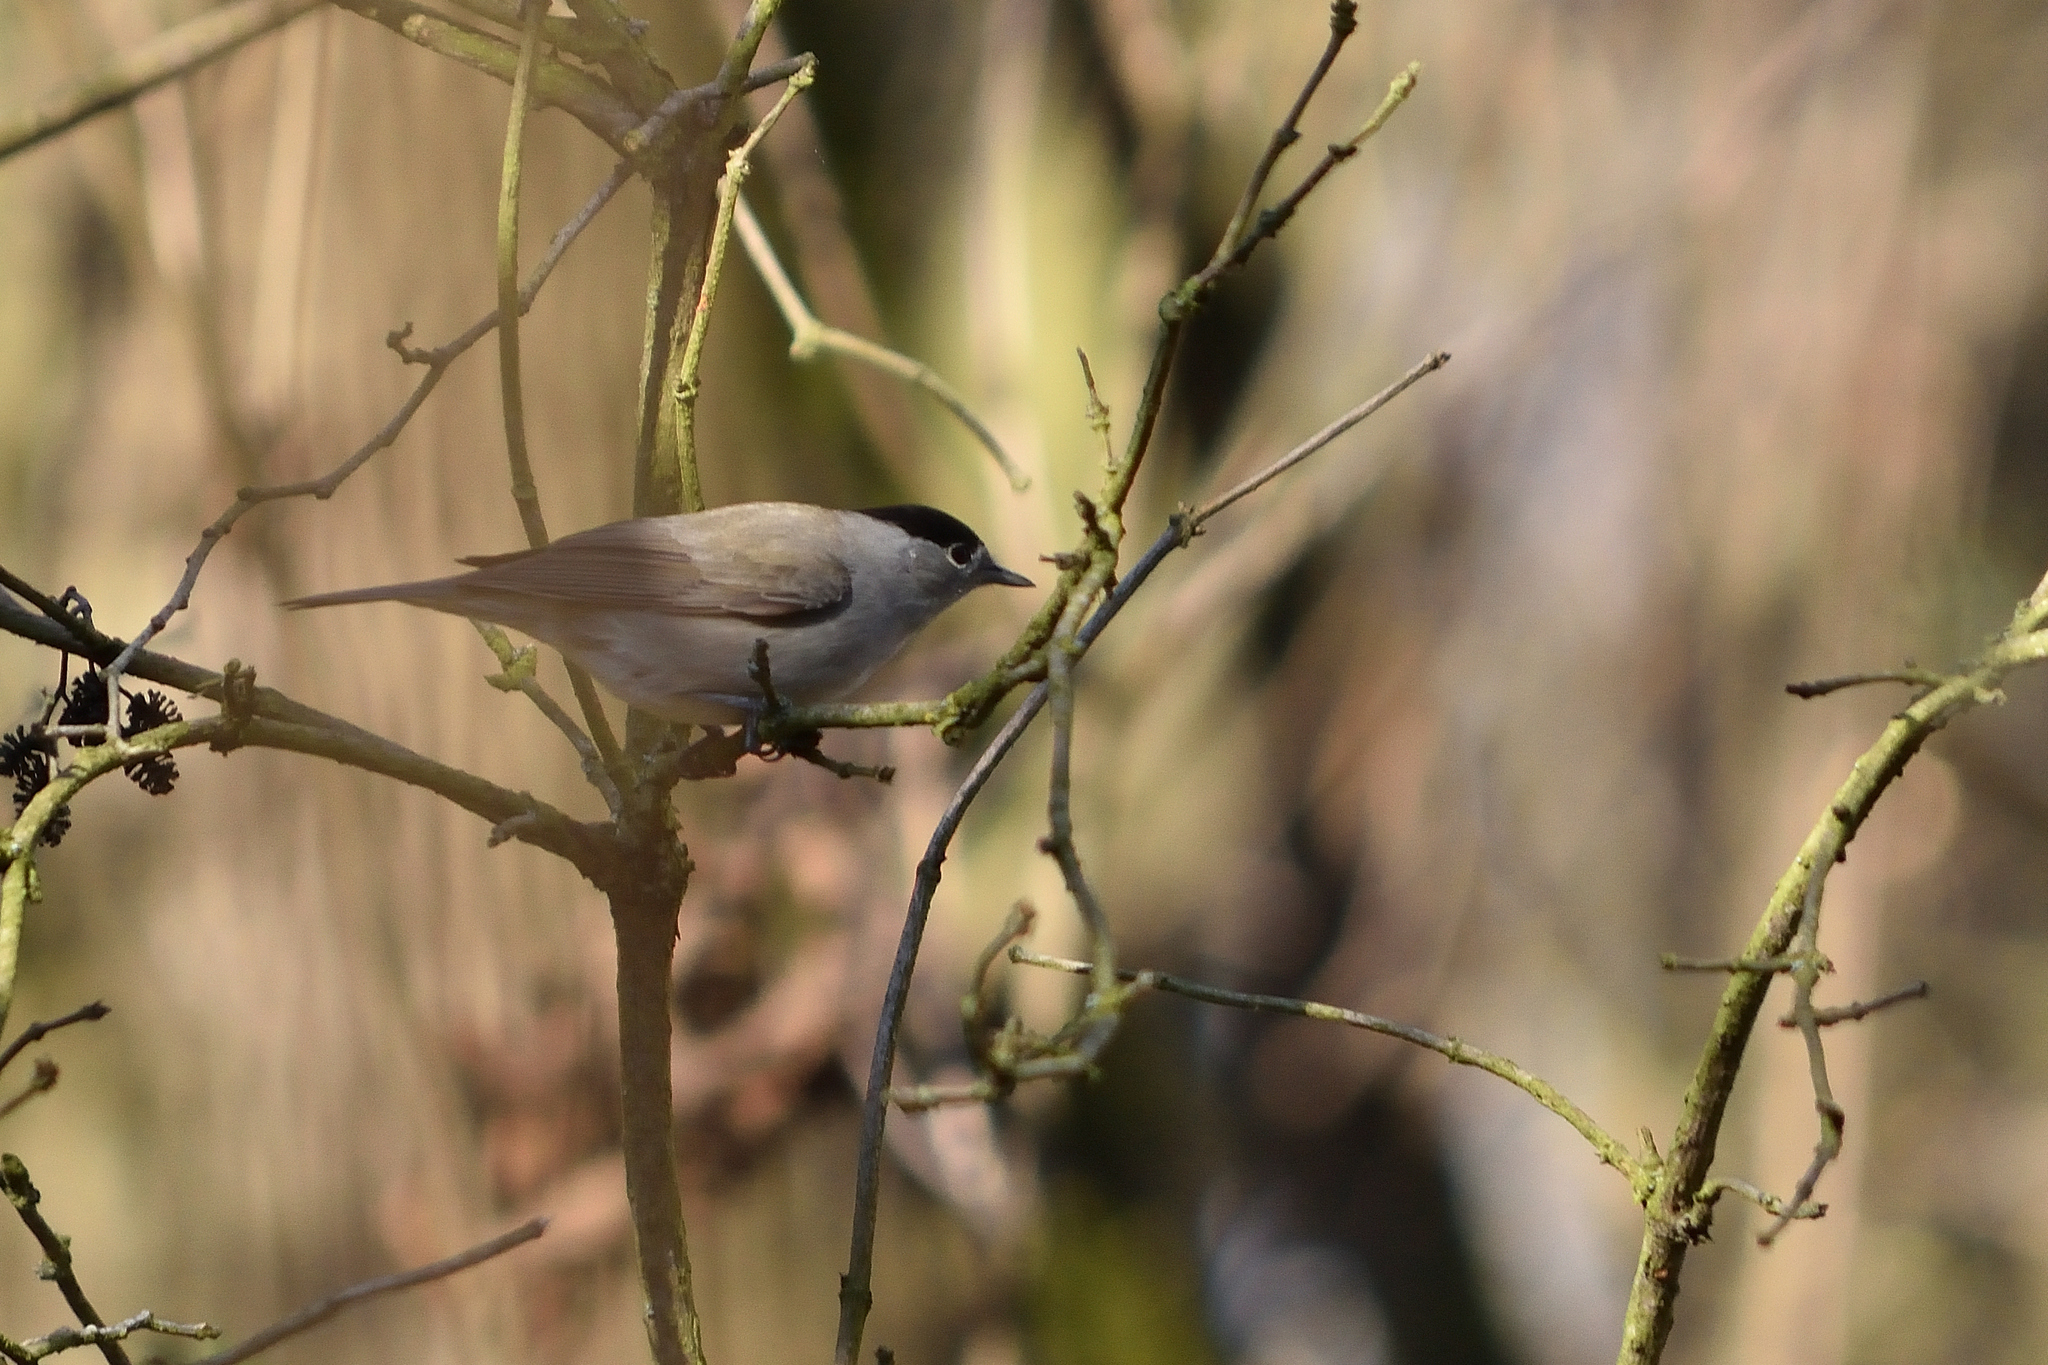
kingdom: Animalia
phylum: Chordata
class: Aves
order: Passeriformes
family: Sylviidae
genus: Sylvia
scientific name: Sylvia atricapilla
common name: Eurasian blackcap
